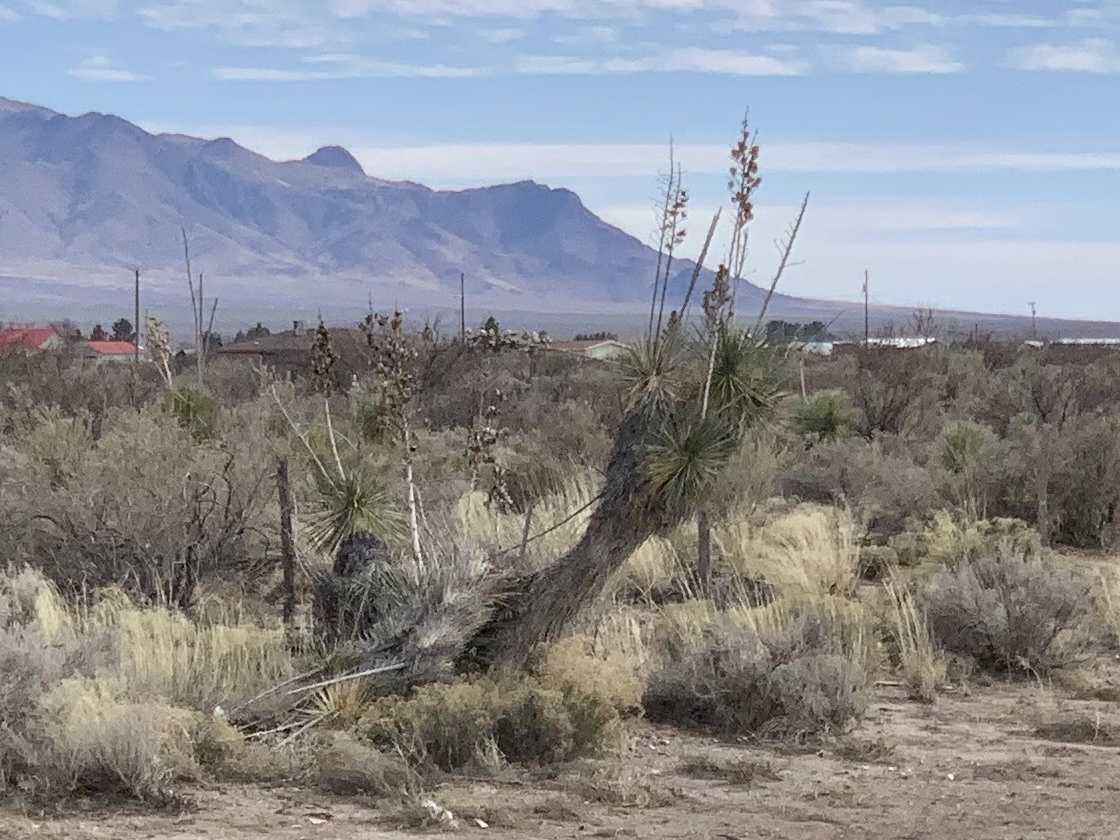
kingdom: Plantae
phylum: Tracheophyta
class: Liliopsida
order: Asparagales
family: Asparagaceae
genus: Yucca
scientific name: Yucca elata
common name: Palmella
